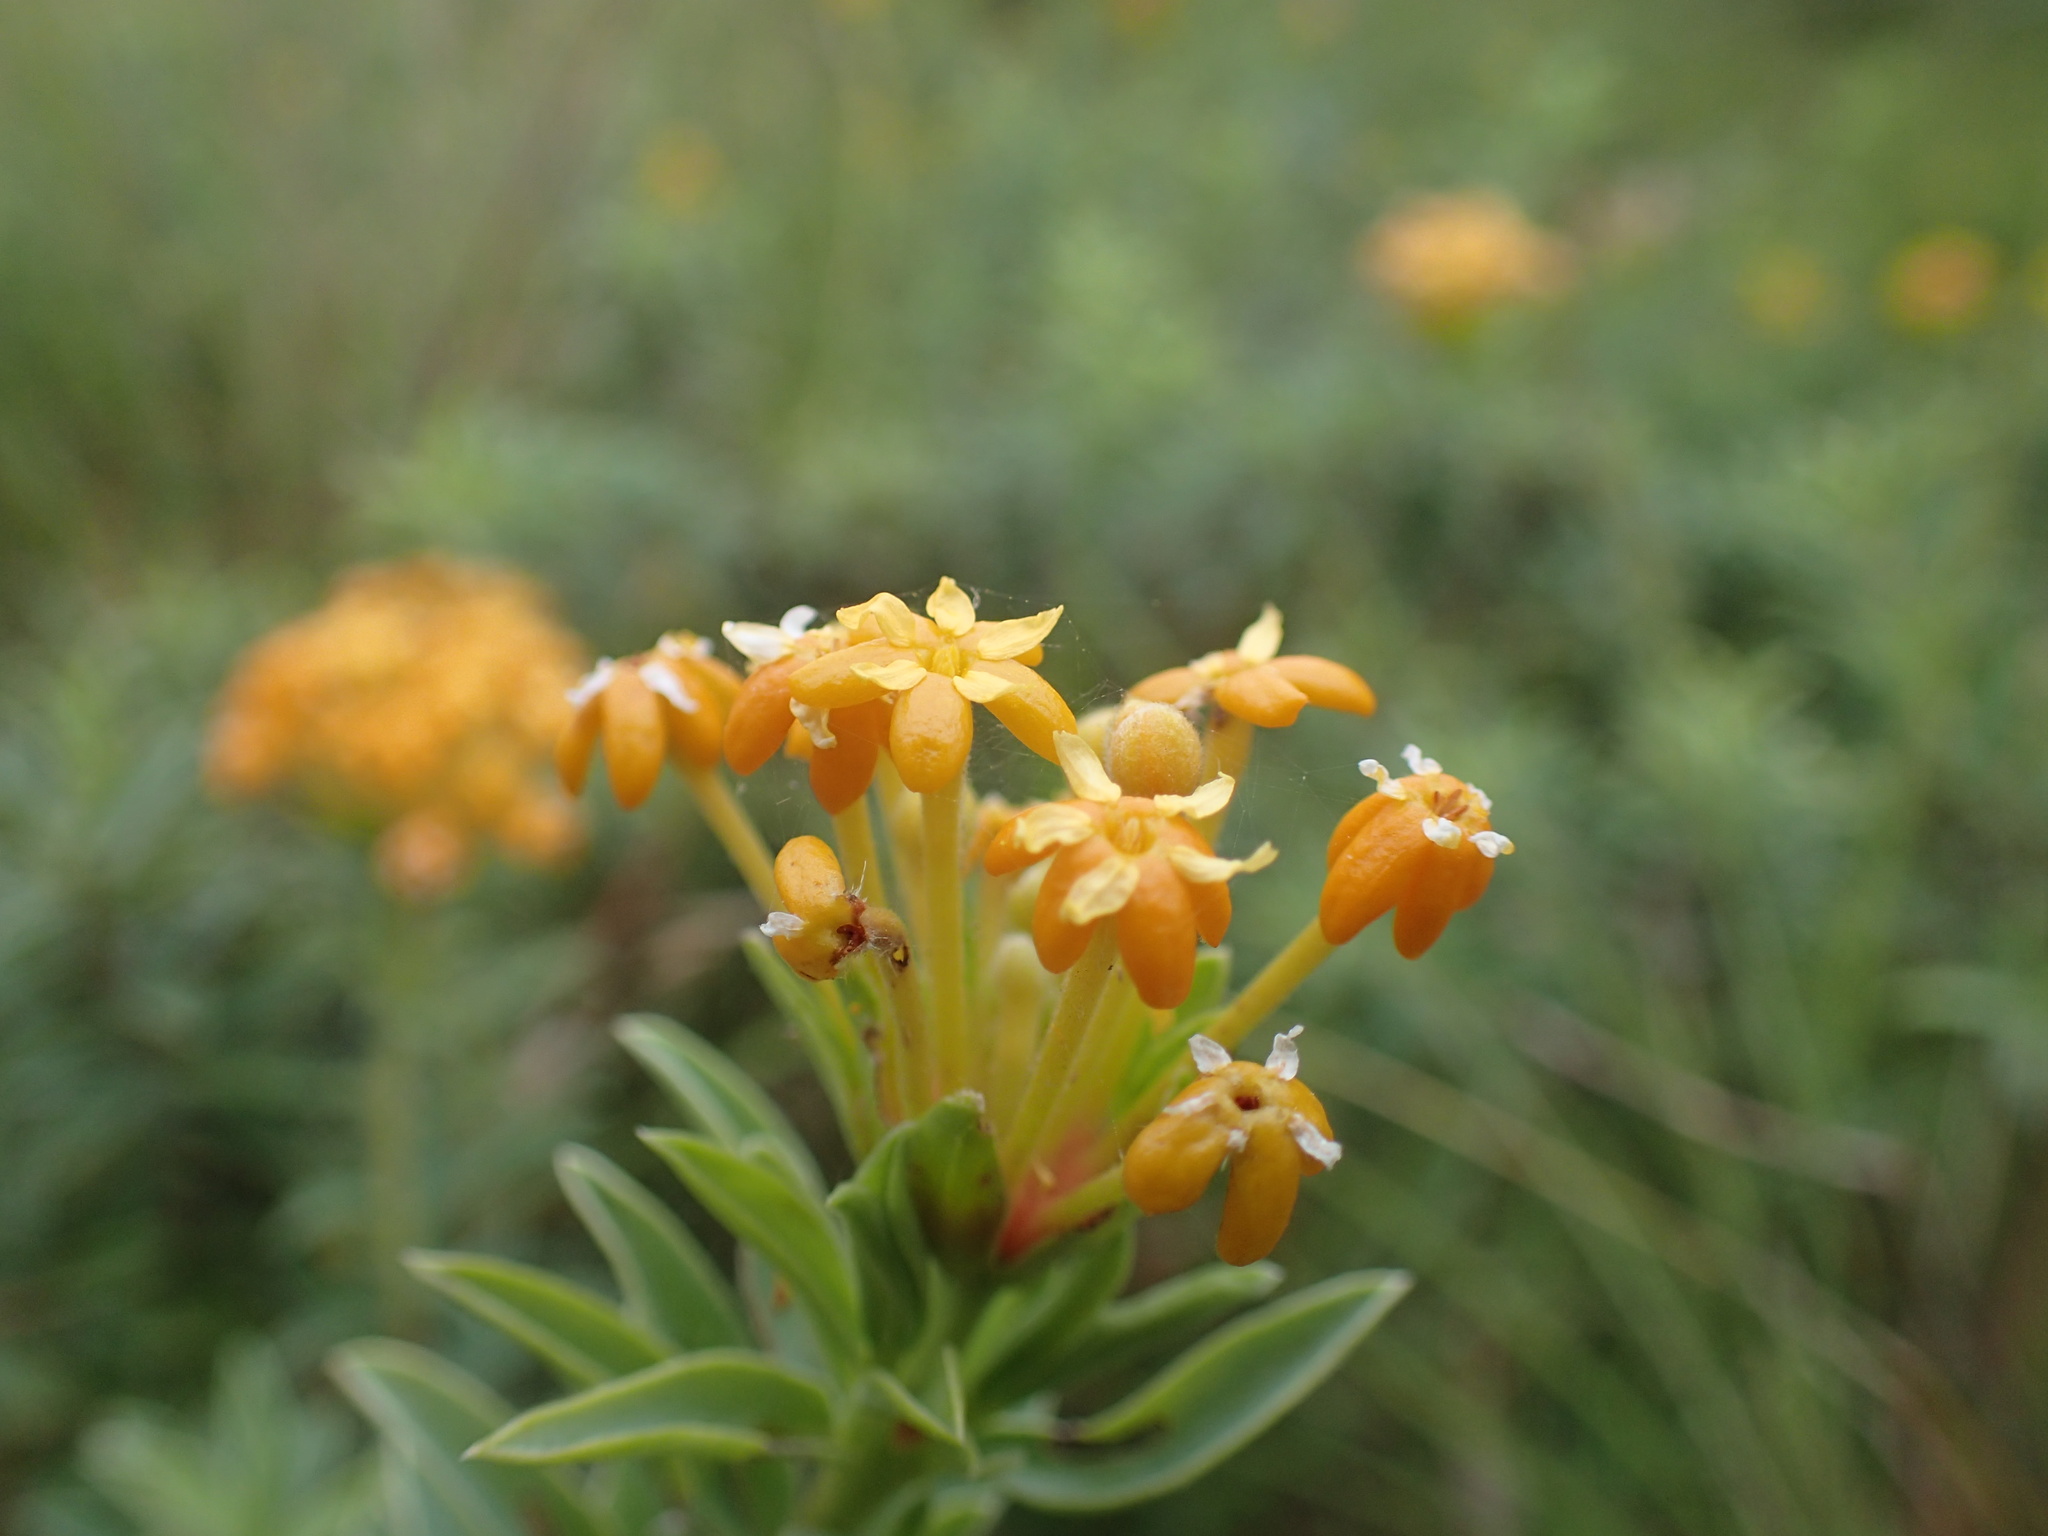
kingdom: Plantae
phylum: Tracheophyta
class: Magnoliopsida
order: Malvales
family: Thymelaeaceae
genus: Gnidia
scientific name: Gnidia capitata
